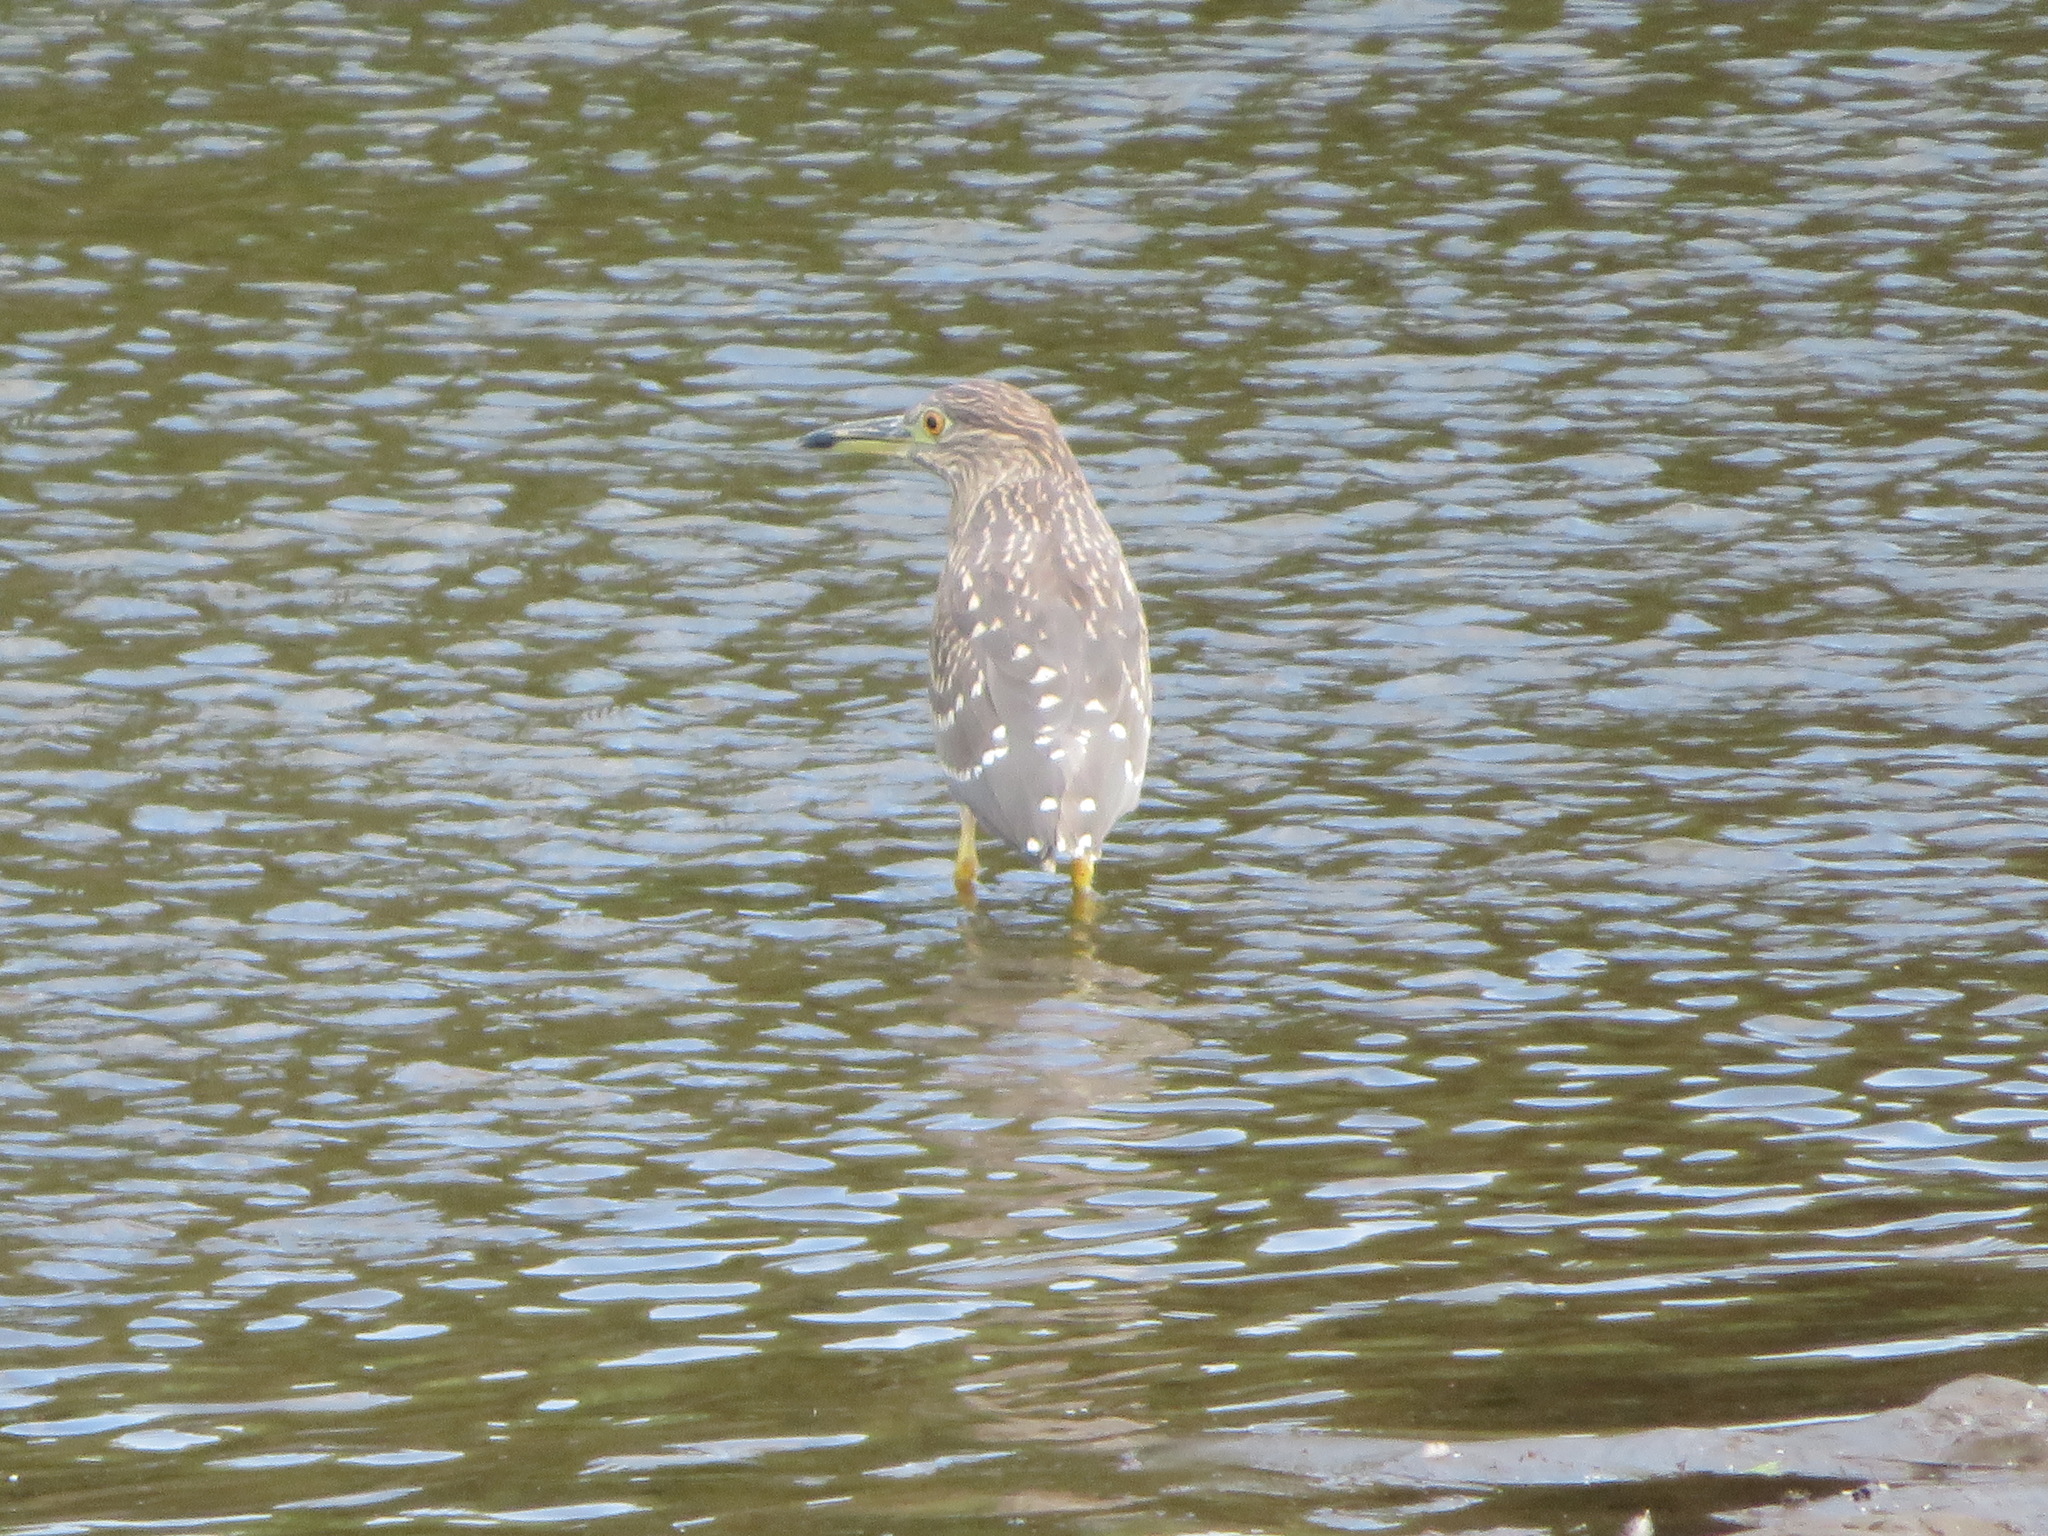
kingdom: Animalia
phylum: Chordata
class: Aves
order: Pelecaniformes
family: Ardeidae
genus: Nycticorax
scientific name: Nycticorax nycticorax
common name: Black-crowned night heron
